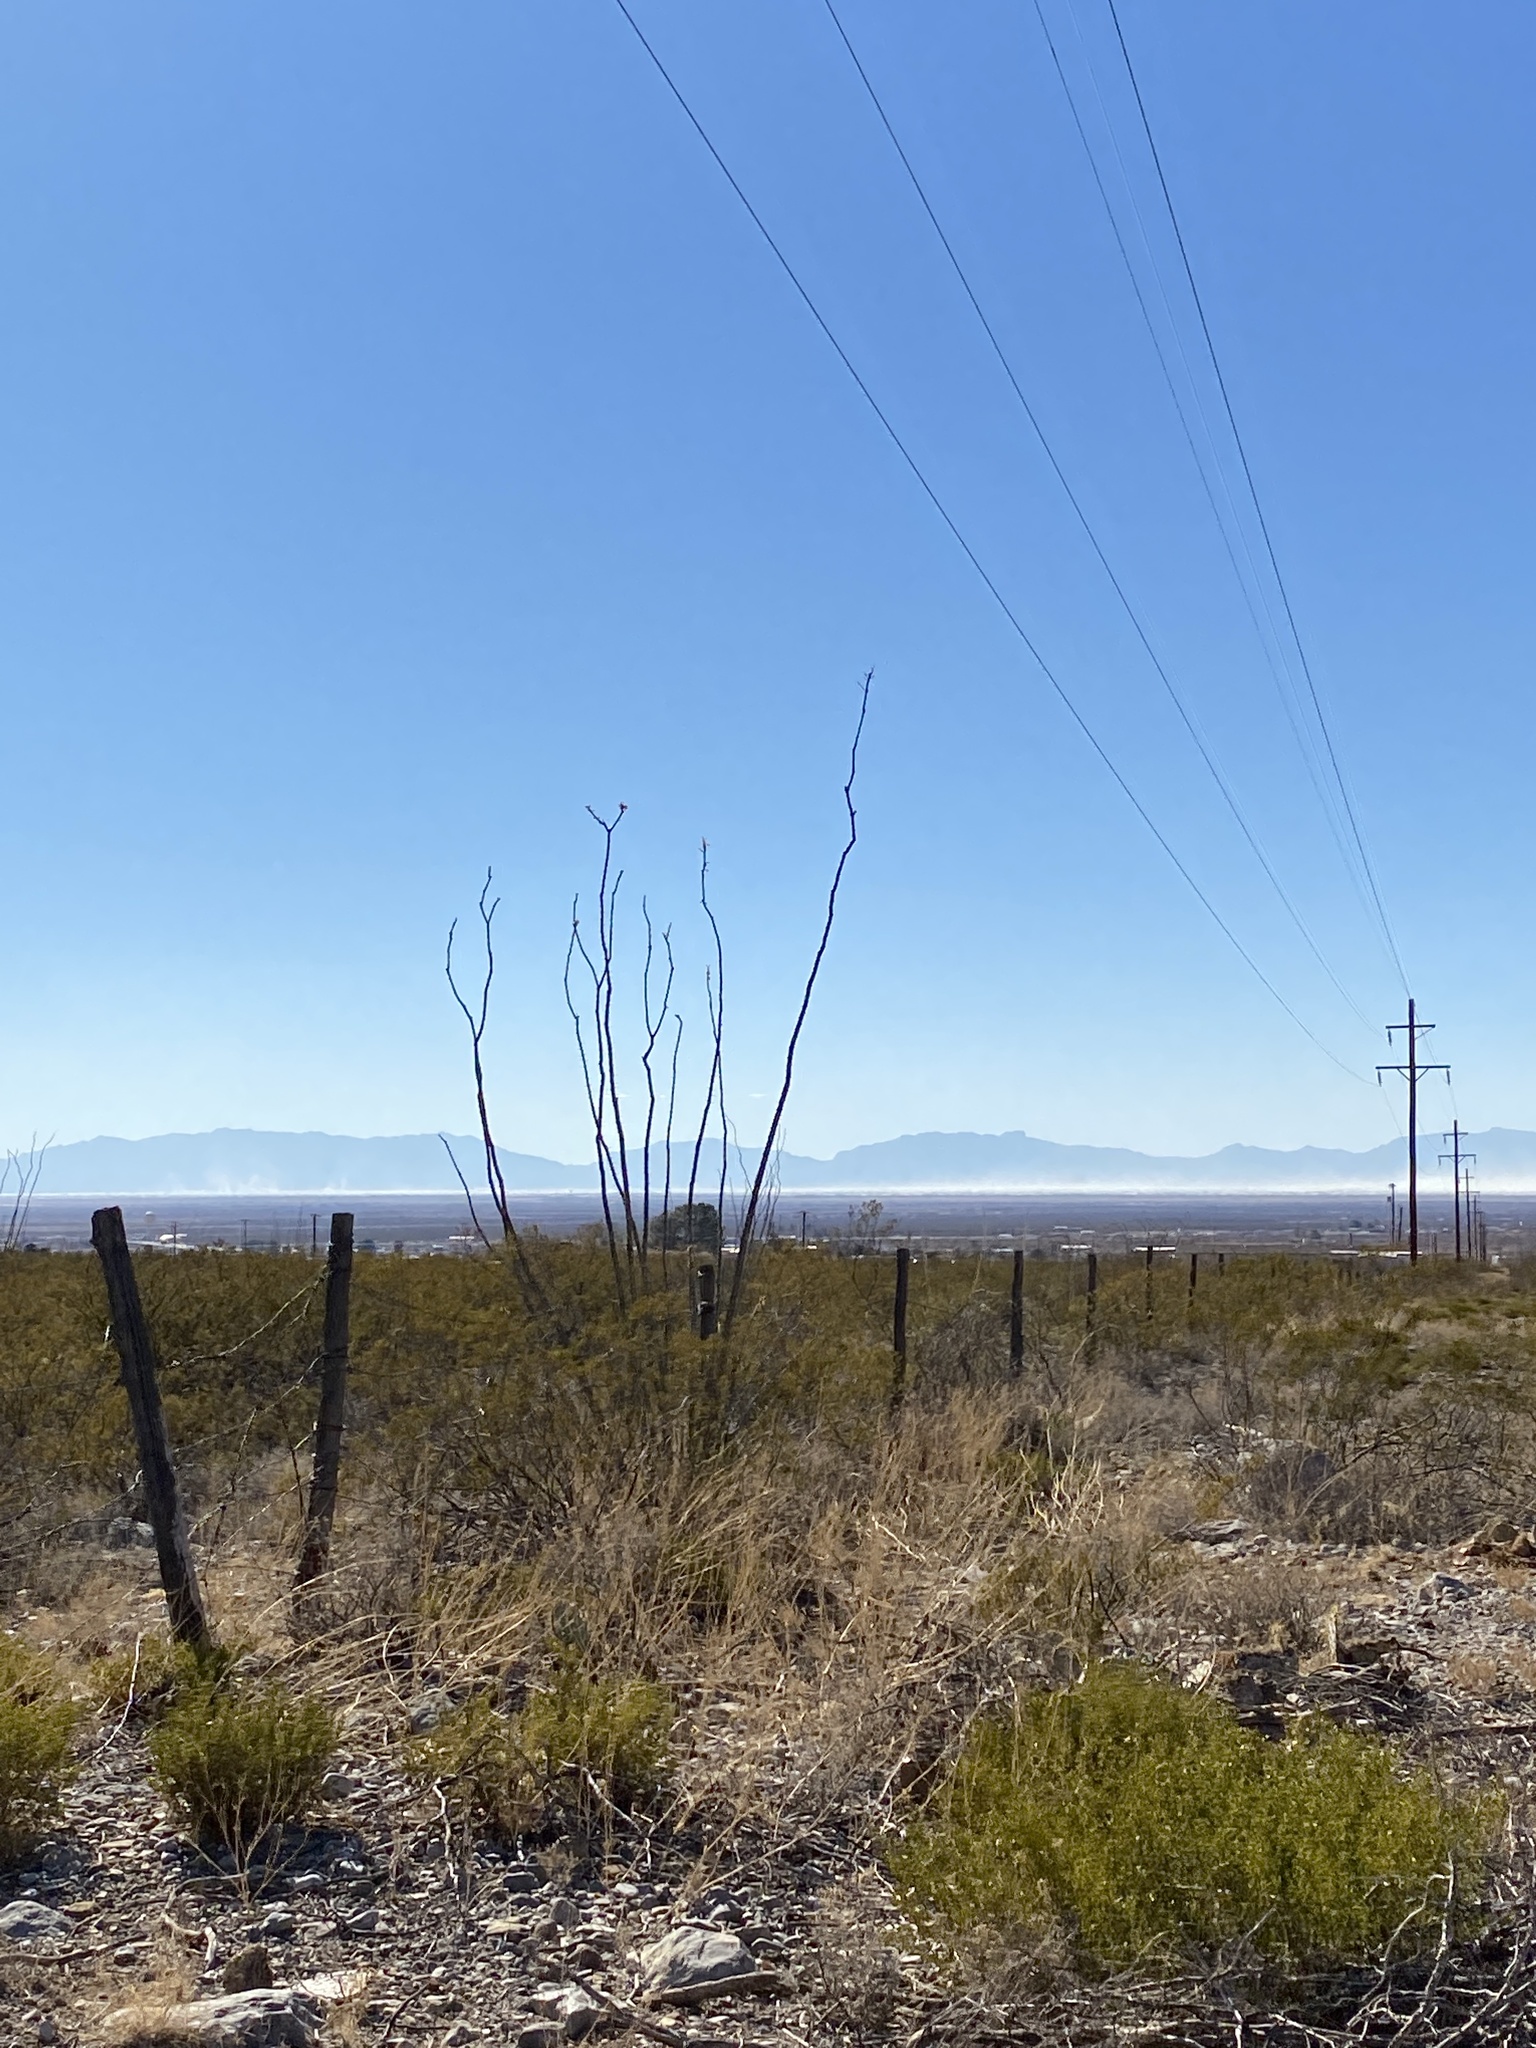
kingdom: Plantae
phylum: Tracheophyta
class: Magnoliopsida
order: Ericales
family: Fouquieriaceae
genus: Fouquieria
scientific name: Fouquieria splendens
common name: Vine-cactus
